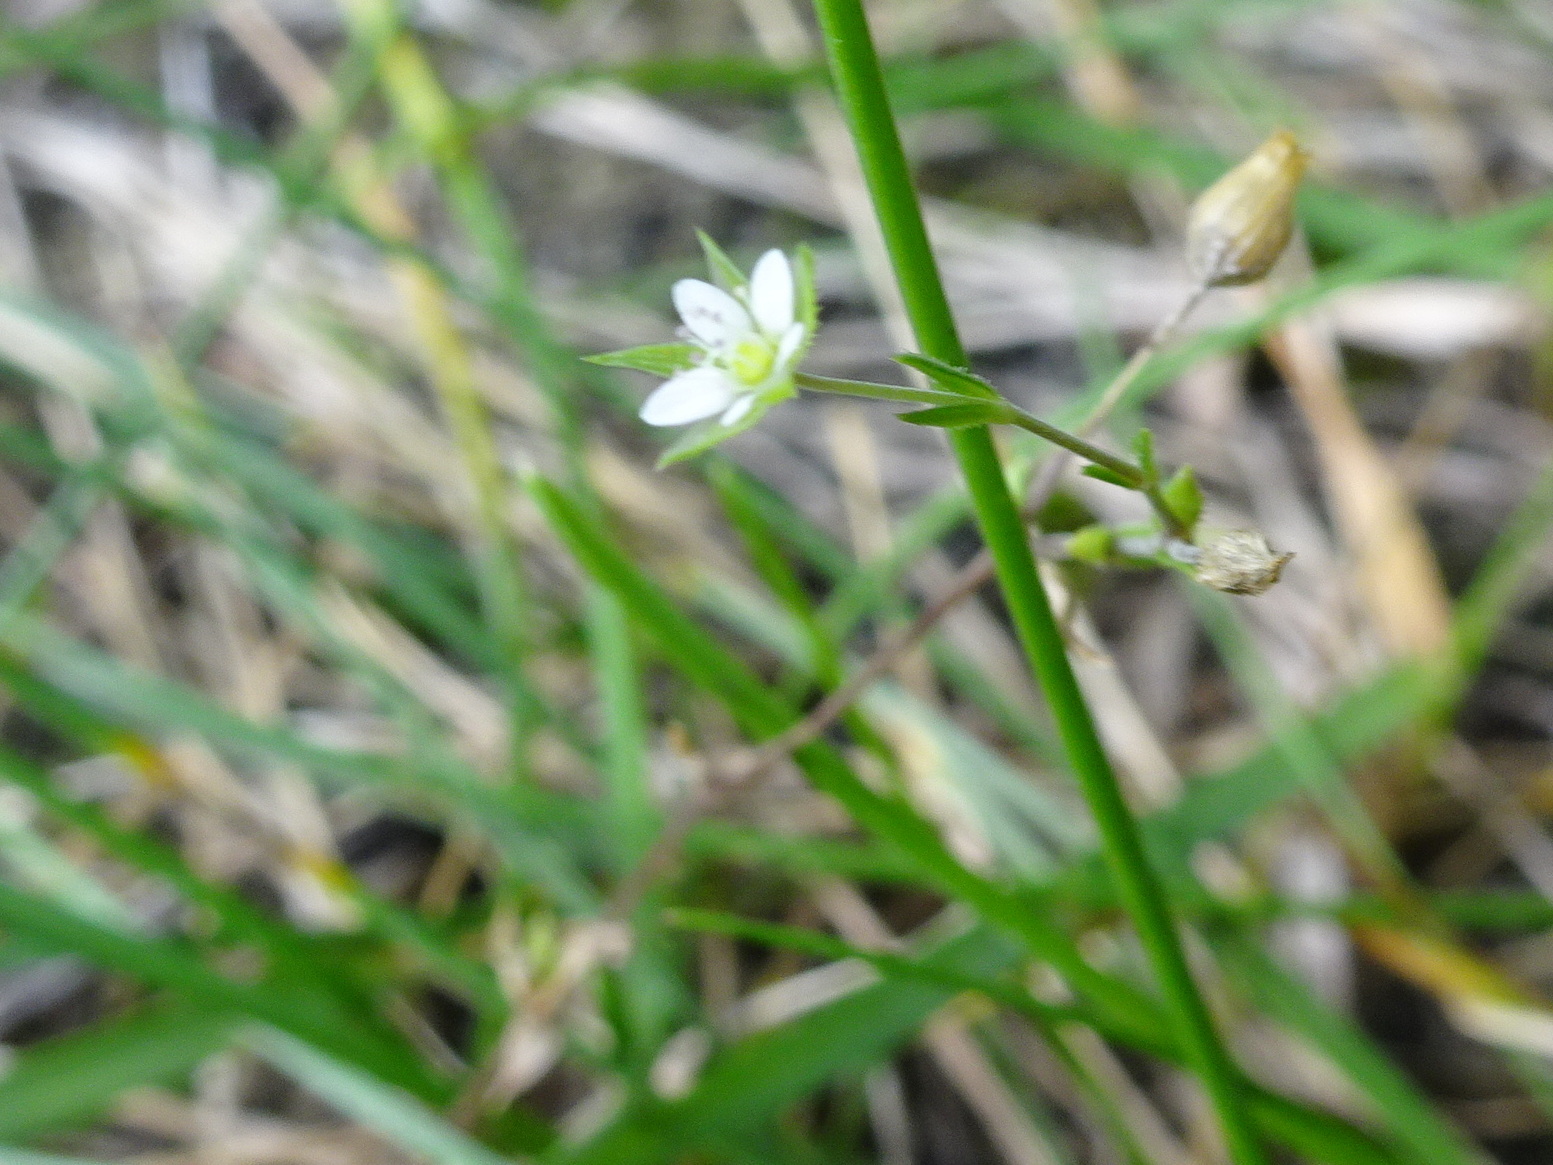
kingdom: Plantae
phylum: Tracheophyta
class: Magnoliopsida
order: Caryophyllales
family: Caryophyllaceae
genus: Arenaria
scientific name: Arenaria serpyllifolia
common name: Thyme-leaved sandwort
